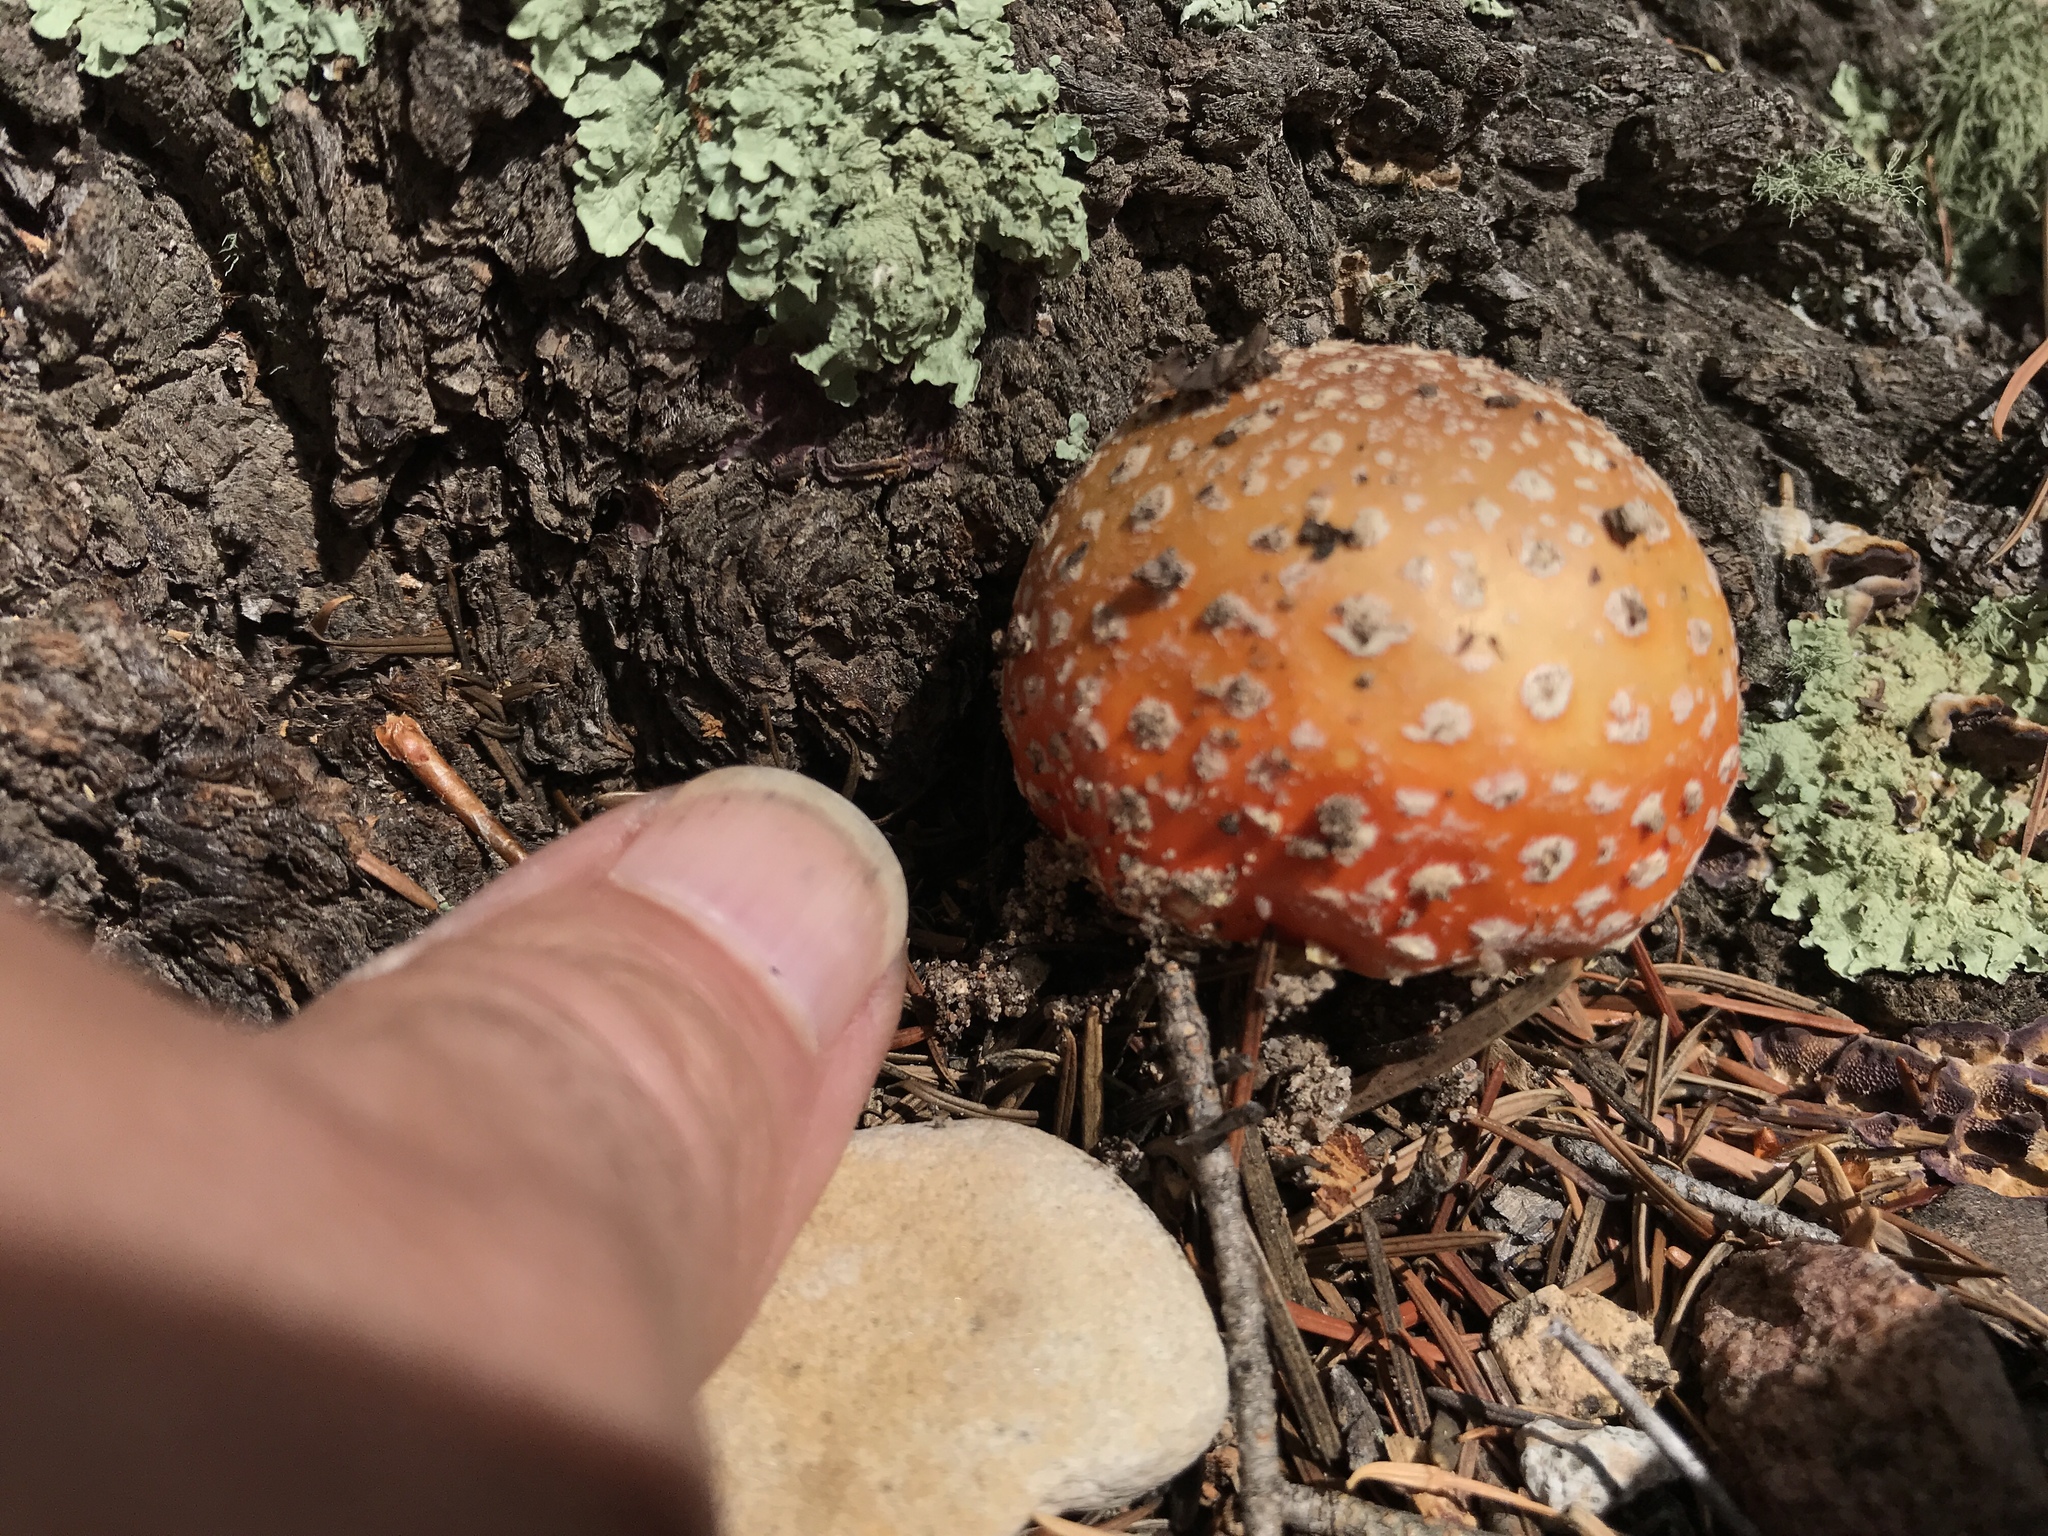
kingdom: Fungi
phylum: Basidiomycota
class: Agaricomycetes
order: Agaricales
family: Amanitaceae
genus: Amanita
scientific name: Amanita muscaria
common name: Fly agaric
